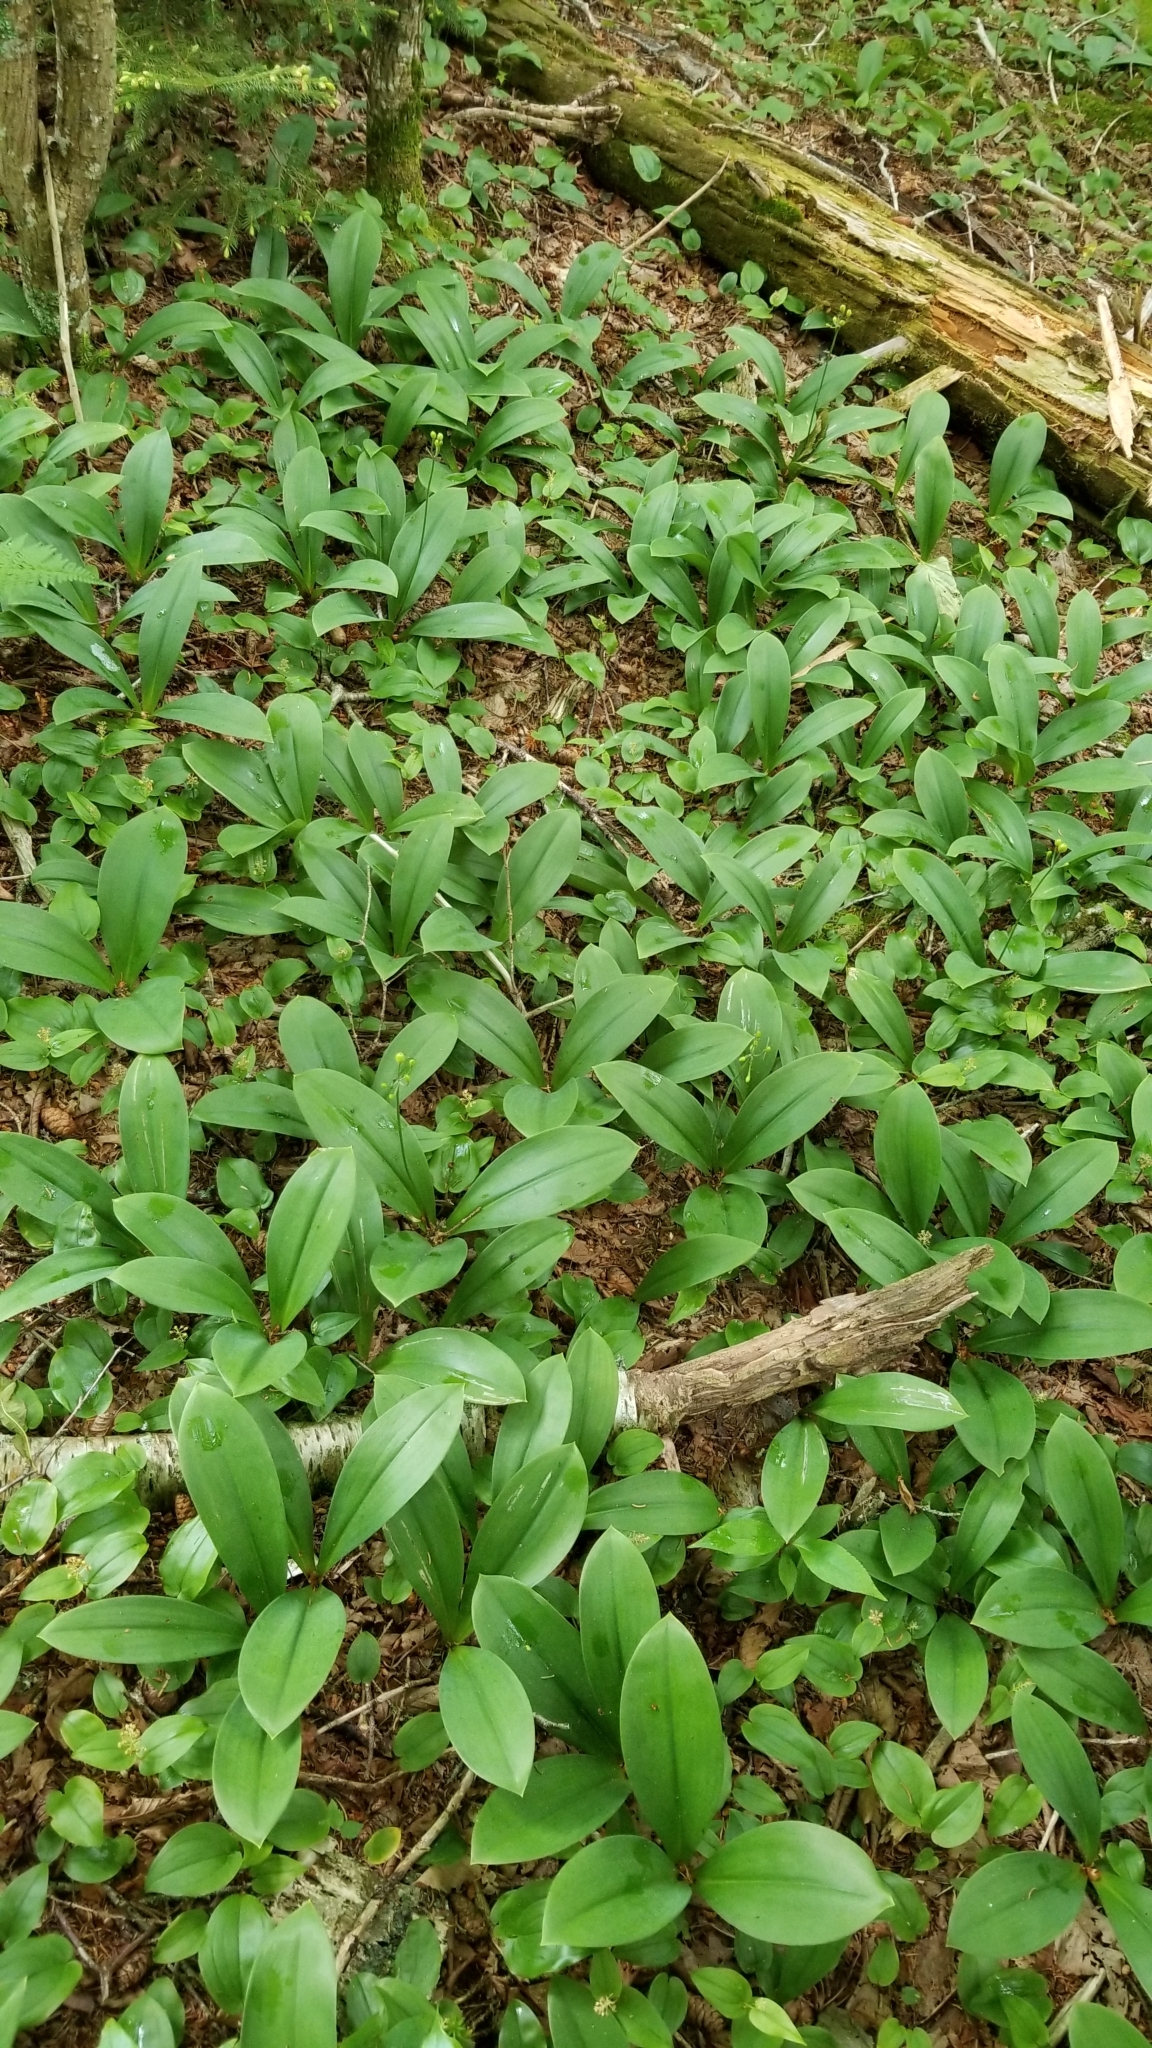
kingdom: Plantae
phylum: Tracheophyta
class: Liliopsida
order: Liliales
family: Liliaceae
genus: Clintonia
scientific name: Clintonia borealis
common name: Yellow clintonia
